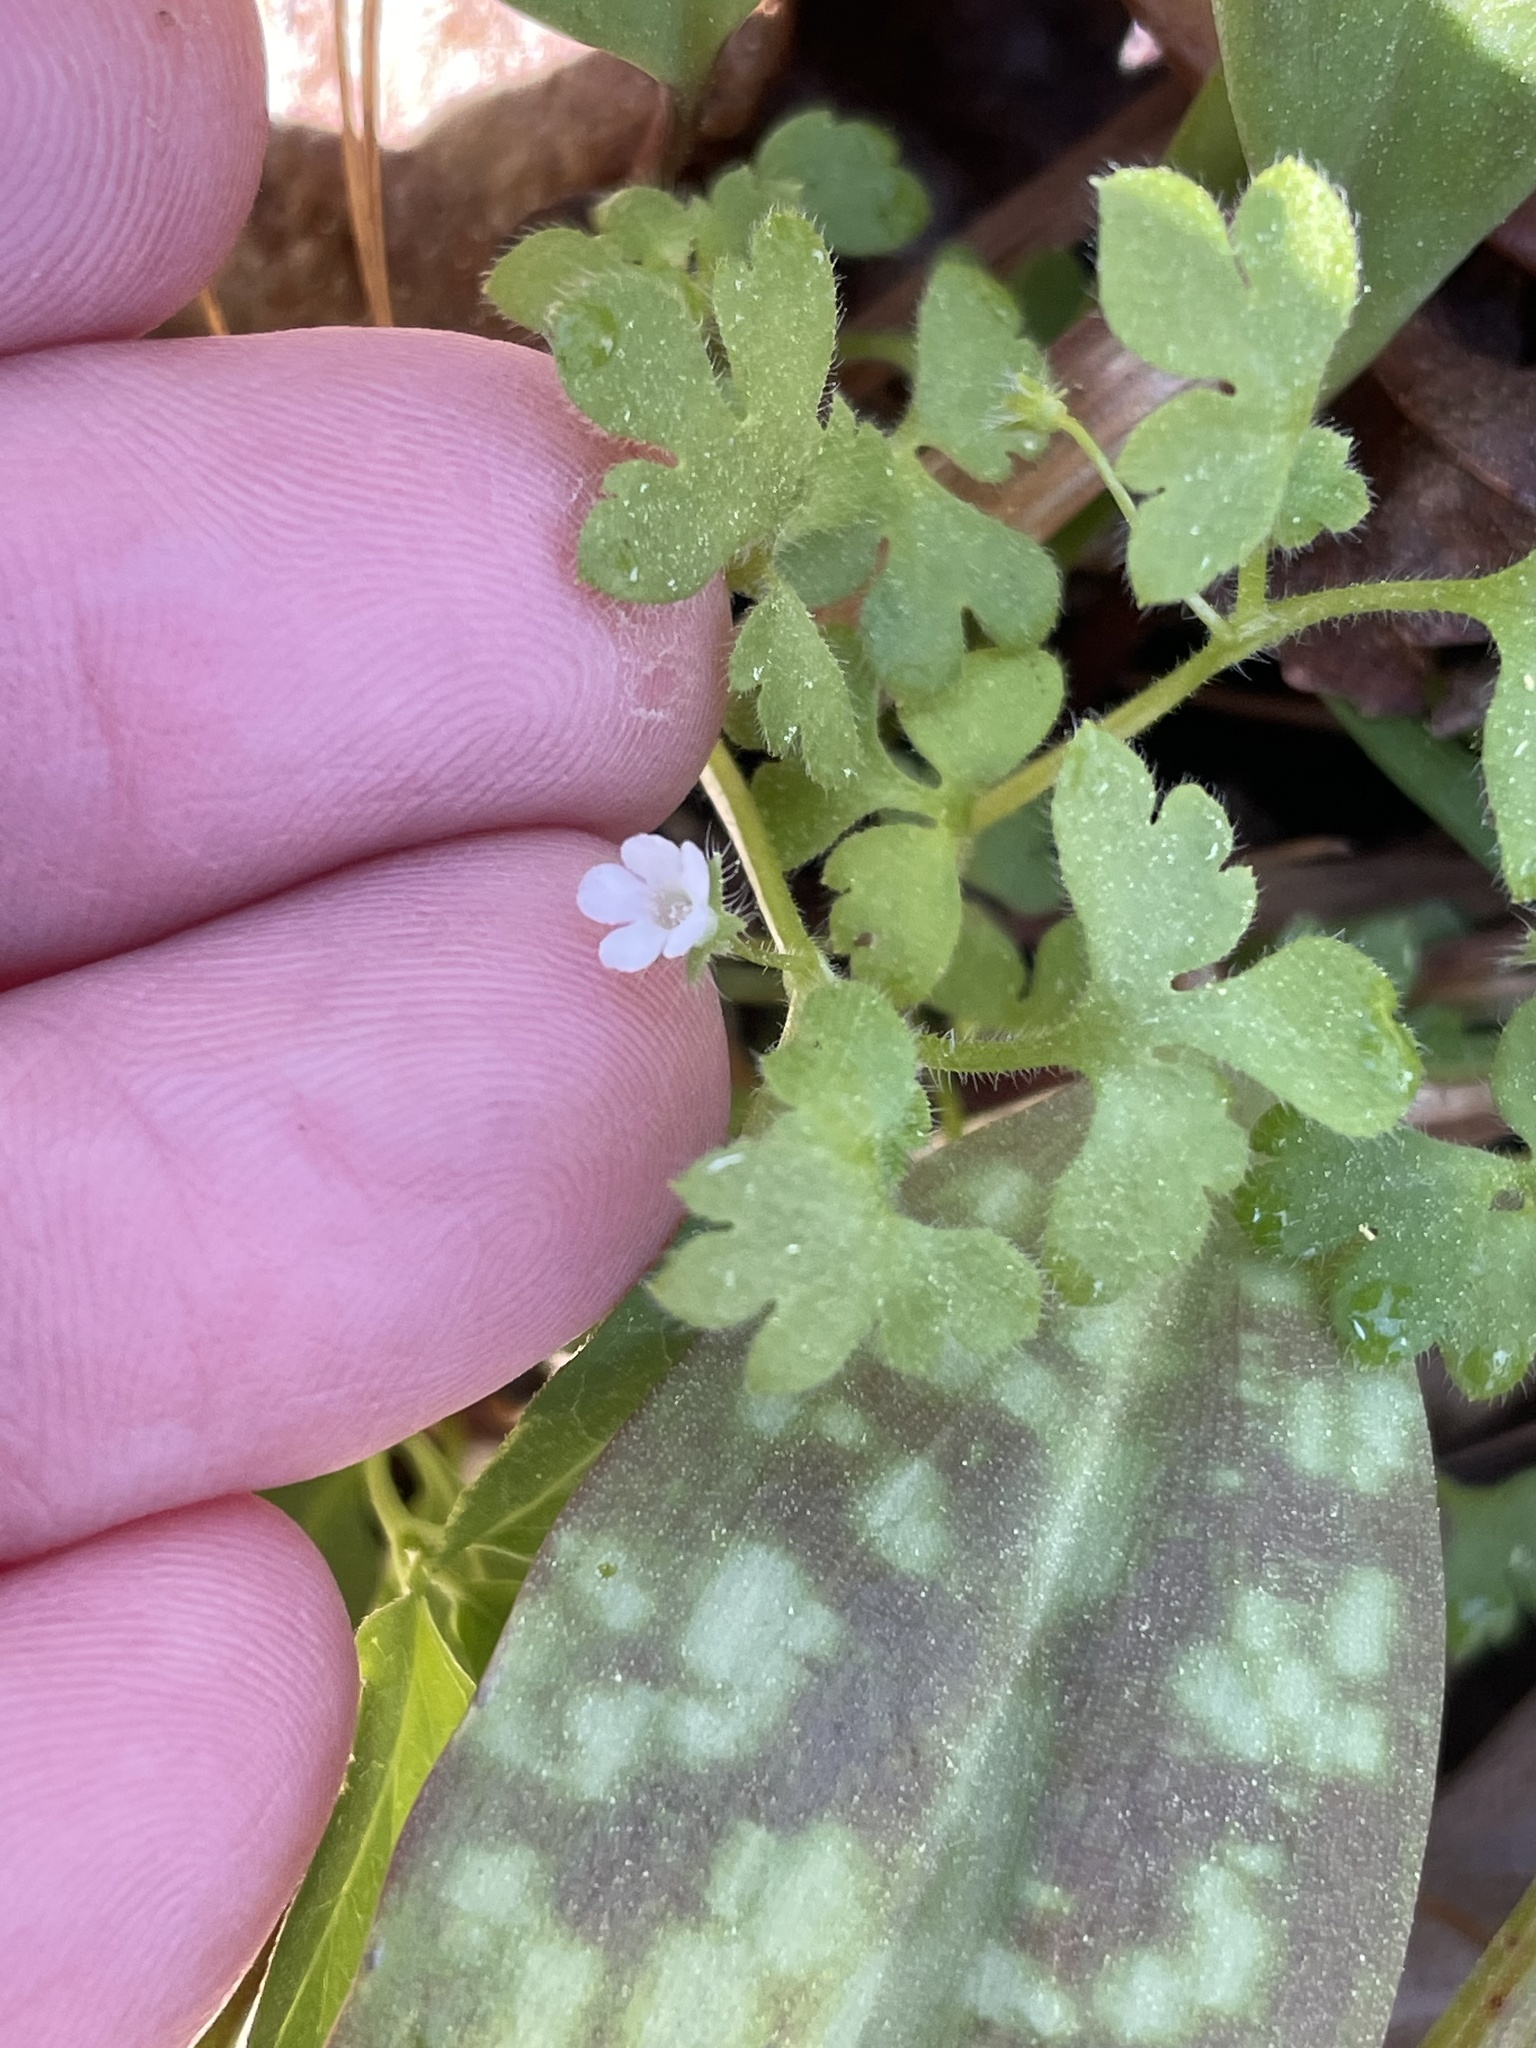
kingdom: Plantae
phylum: Tracheophyta
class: Magnoliopsida
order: Boraginales
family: Hydrophyllaceae
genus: Nemophila
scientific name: Nemophila aphylla
